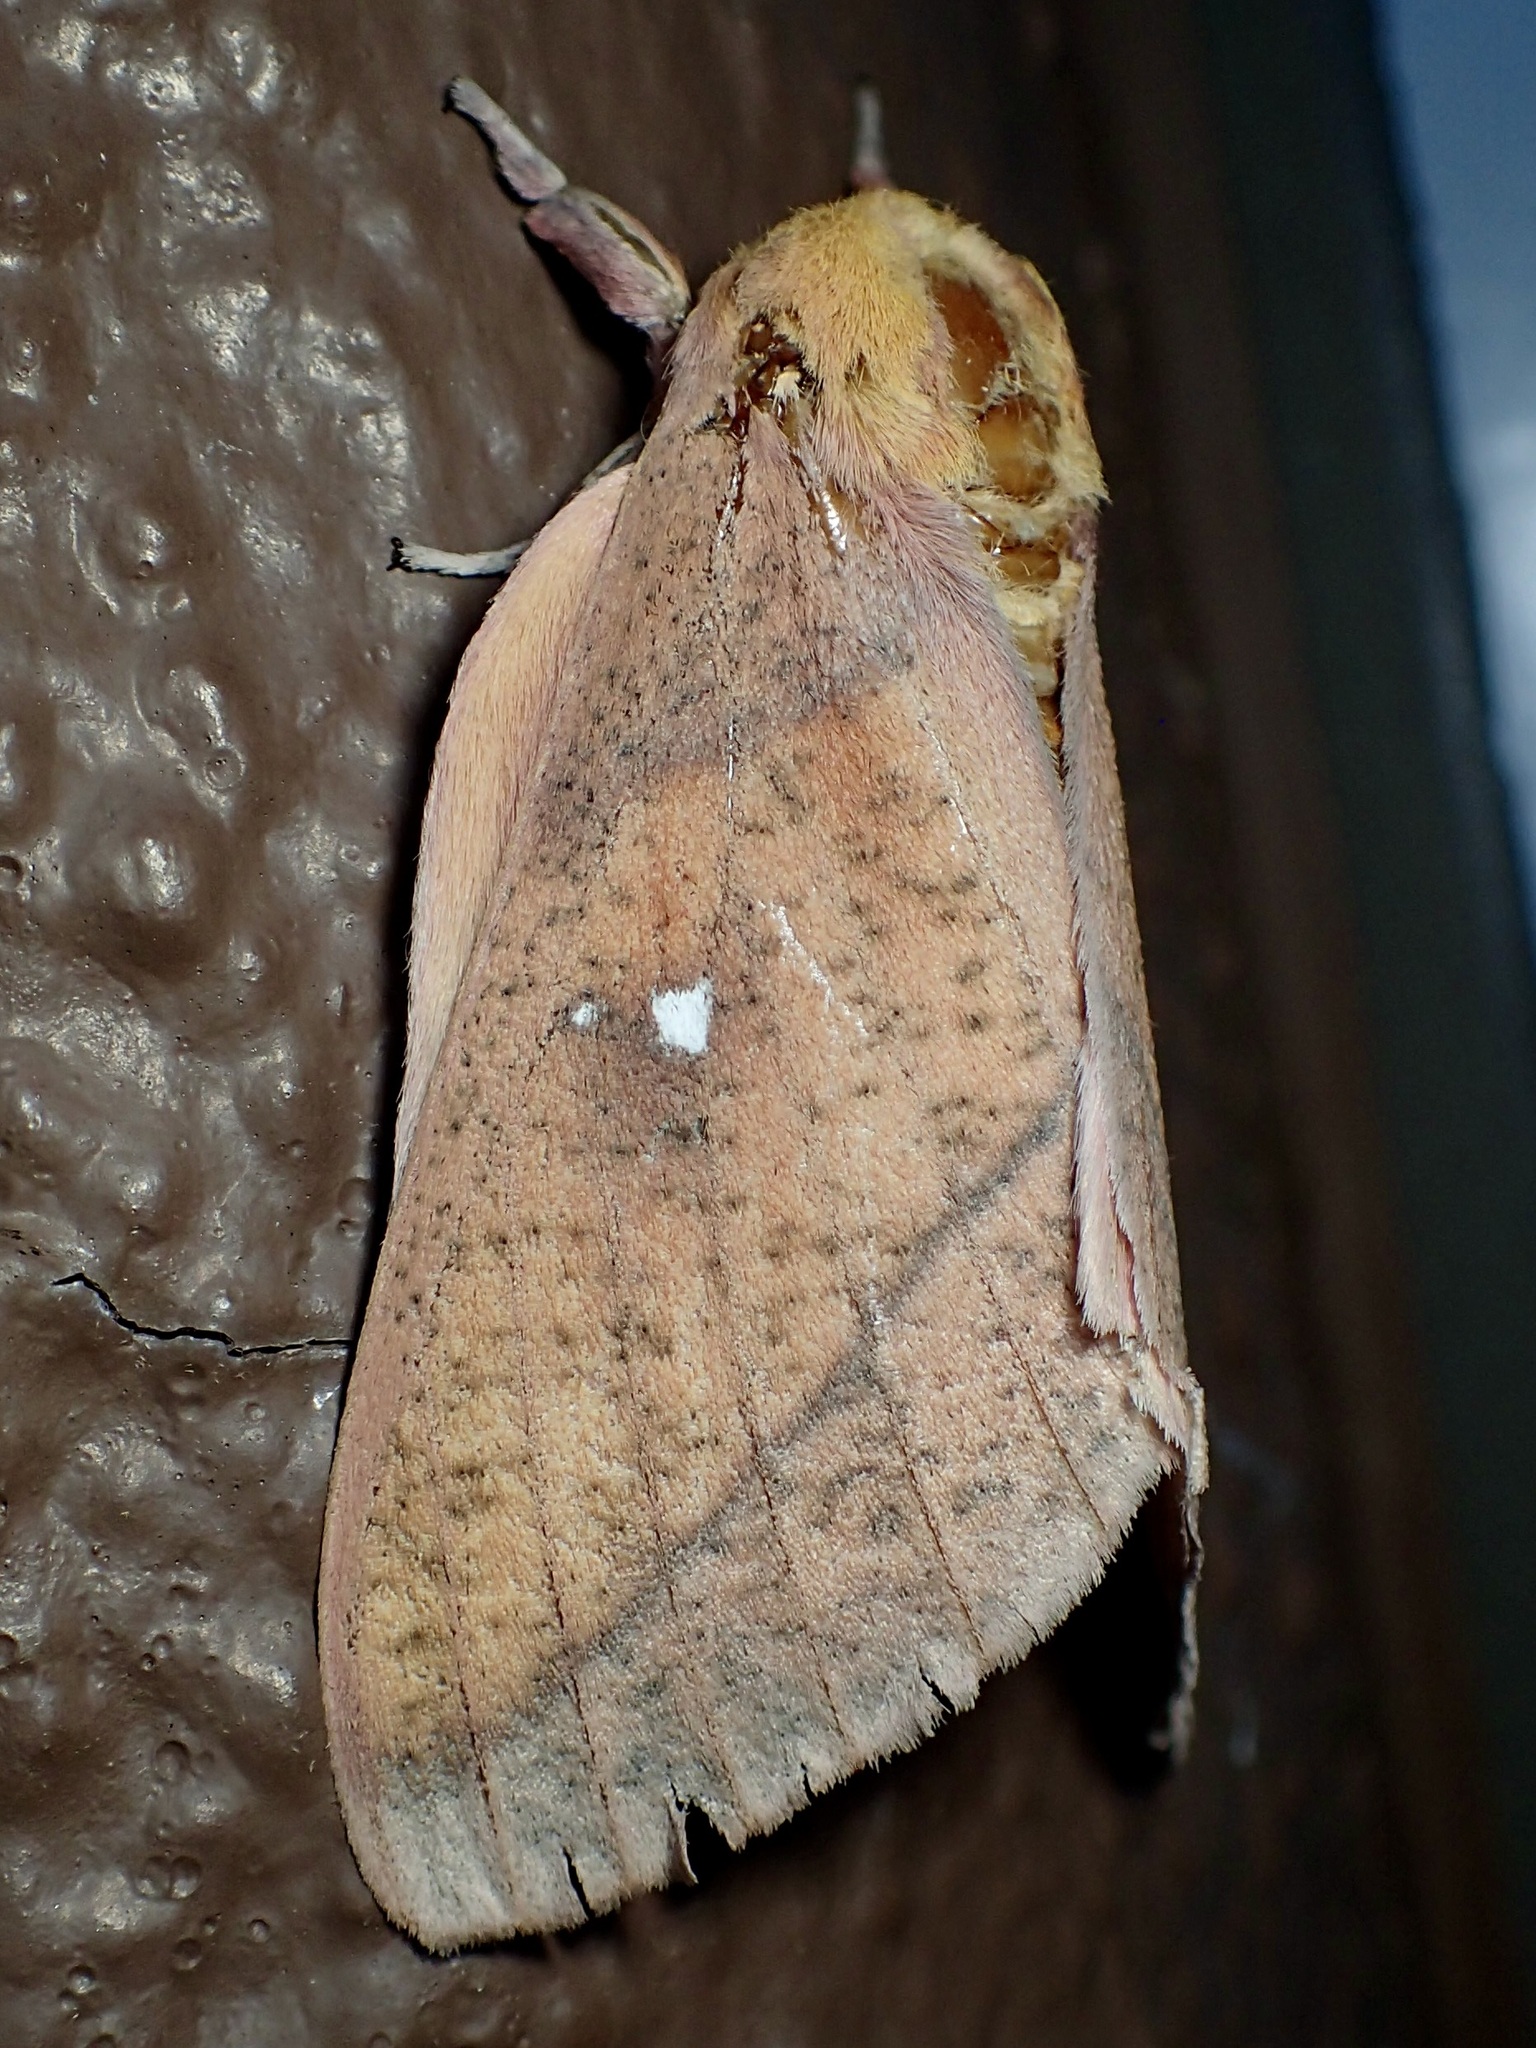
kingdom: Animalia
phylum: Arthropoda
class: Insecta
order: Lepidoptera
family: Saturniidae
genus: Syssphinx
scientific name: Syssphinx montana
